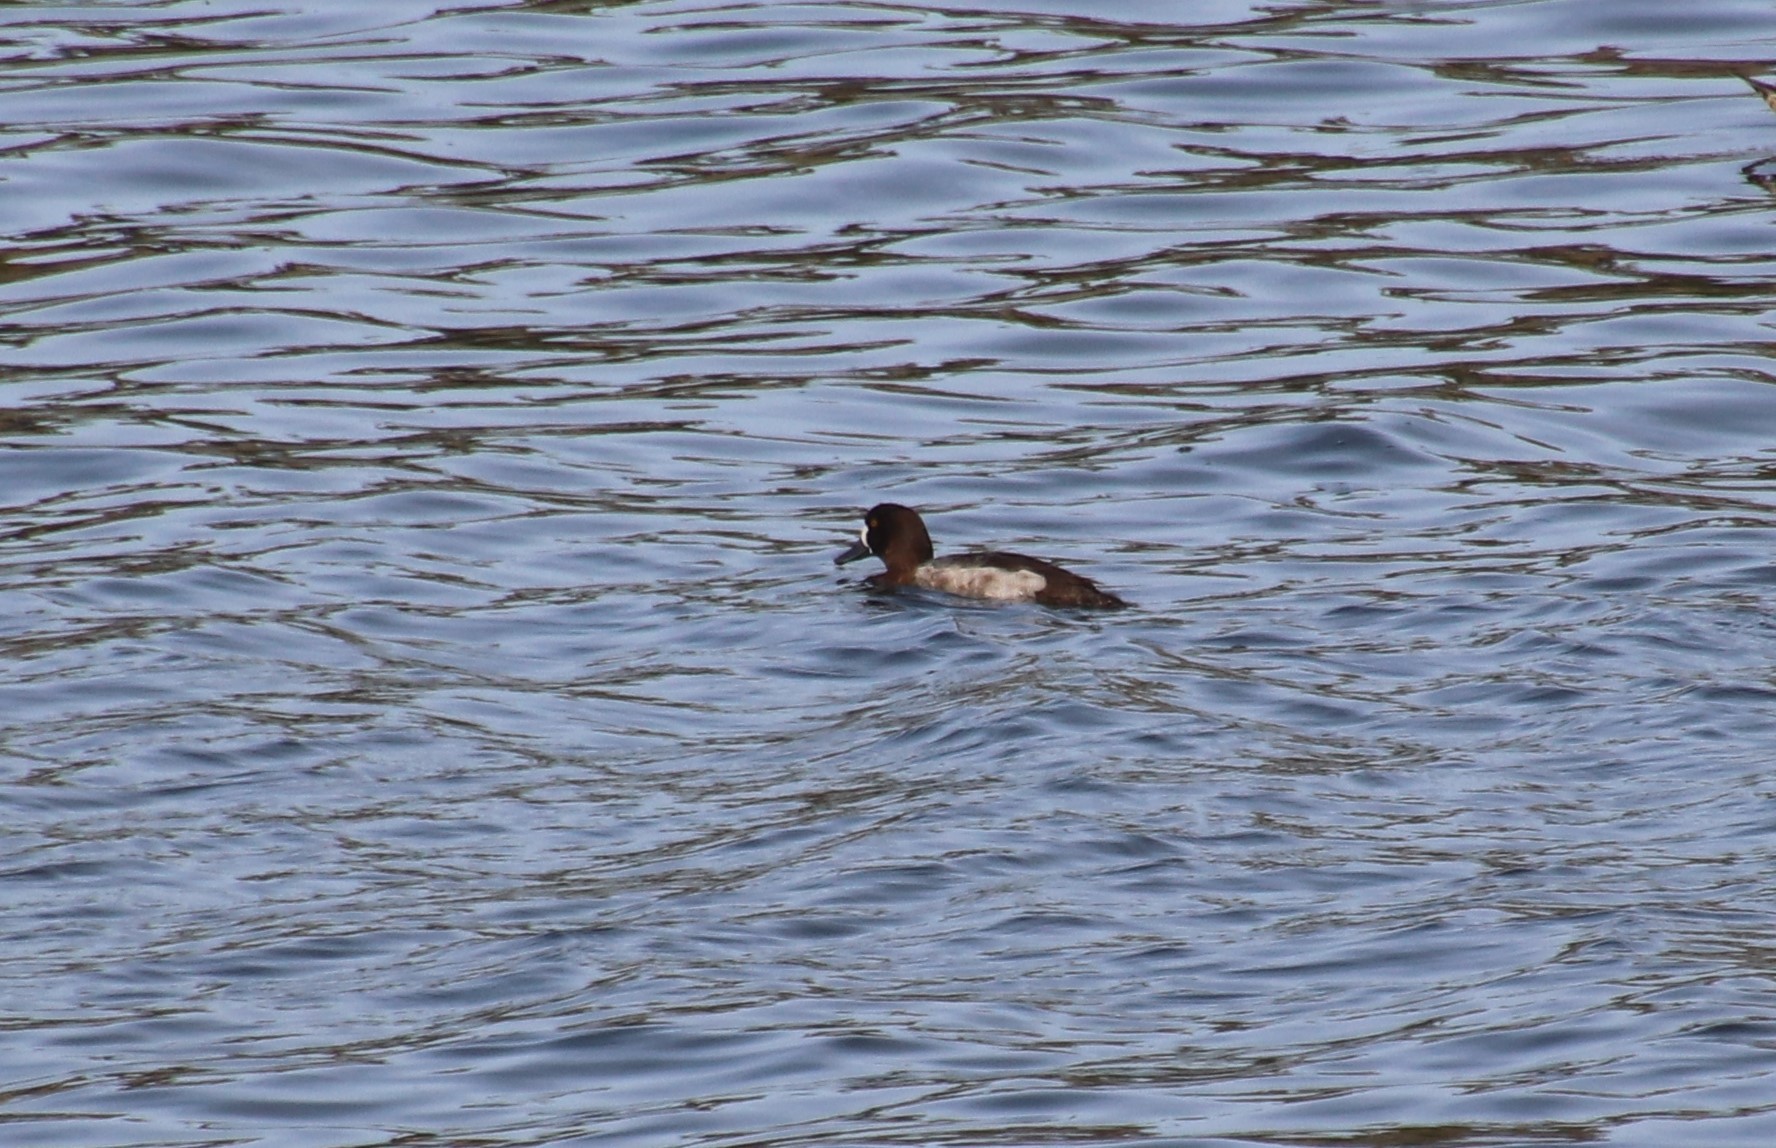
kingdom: Animalia
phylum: Chordata
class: Aves
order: Anseriformes
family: Anatidae
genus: Aythya
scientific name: Aythya marila
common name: Greater scaup
